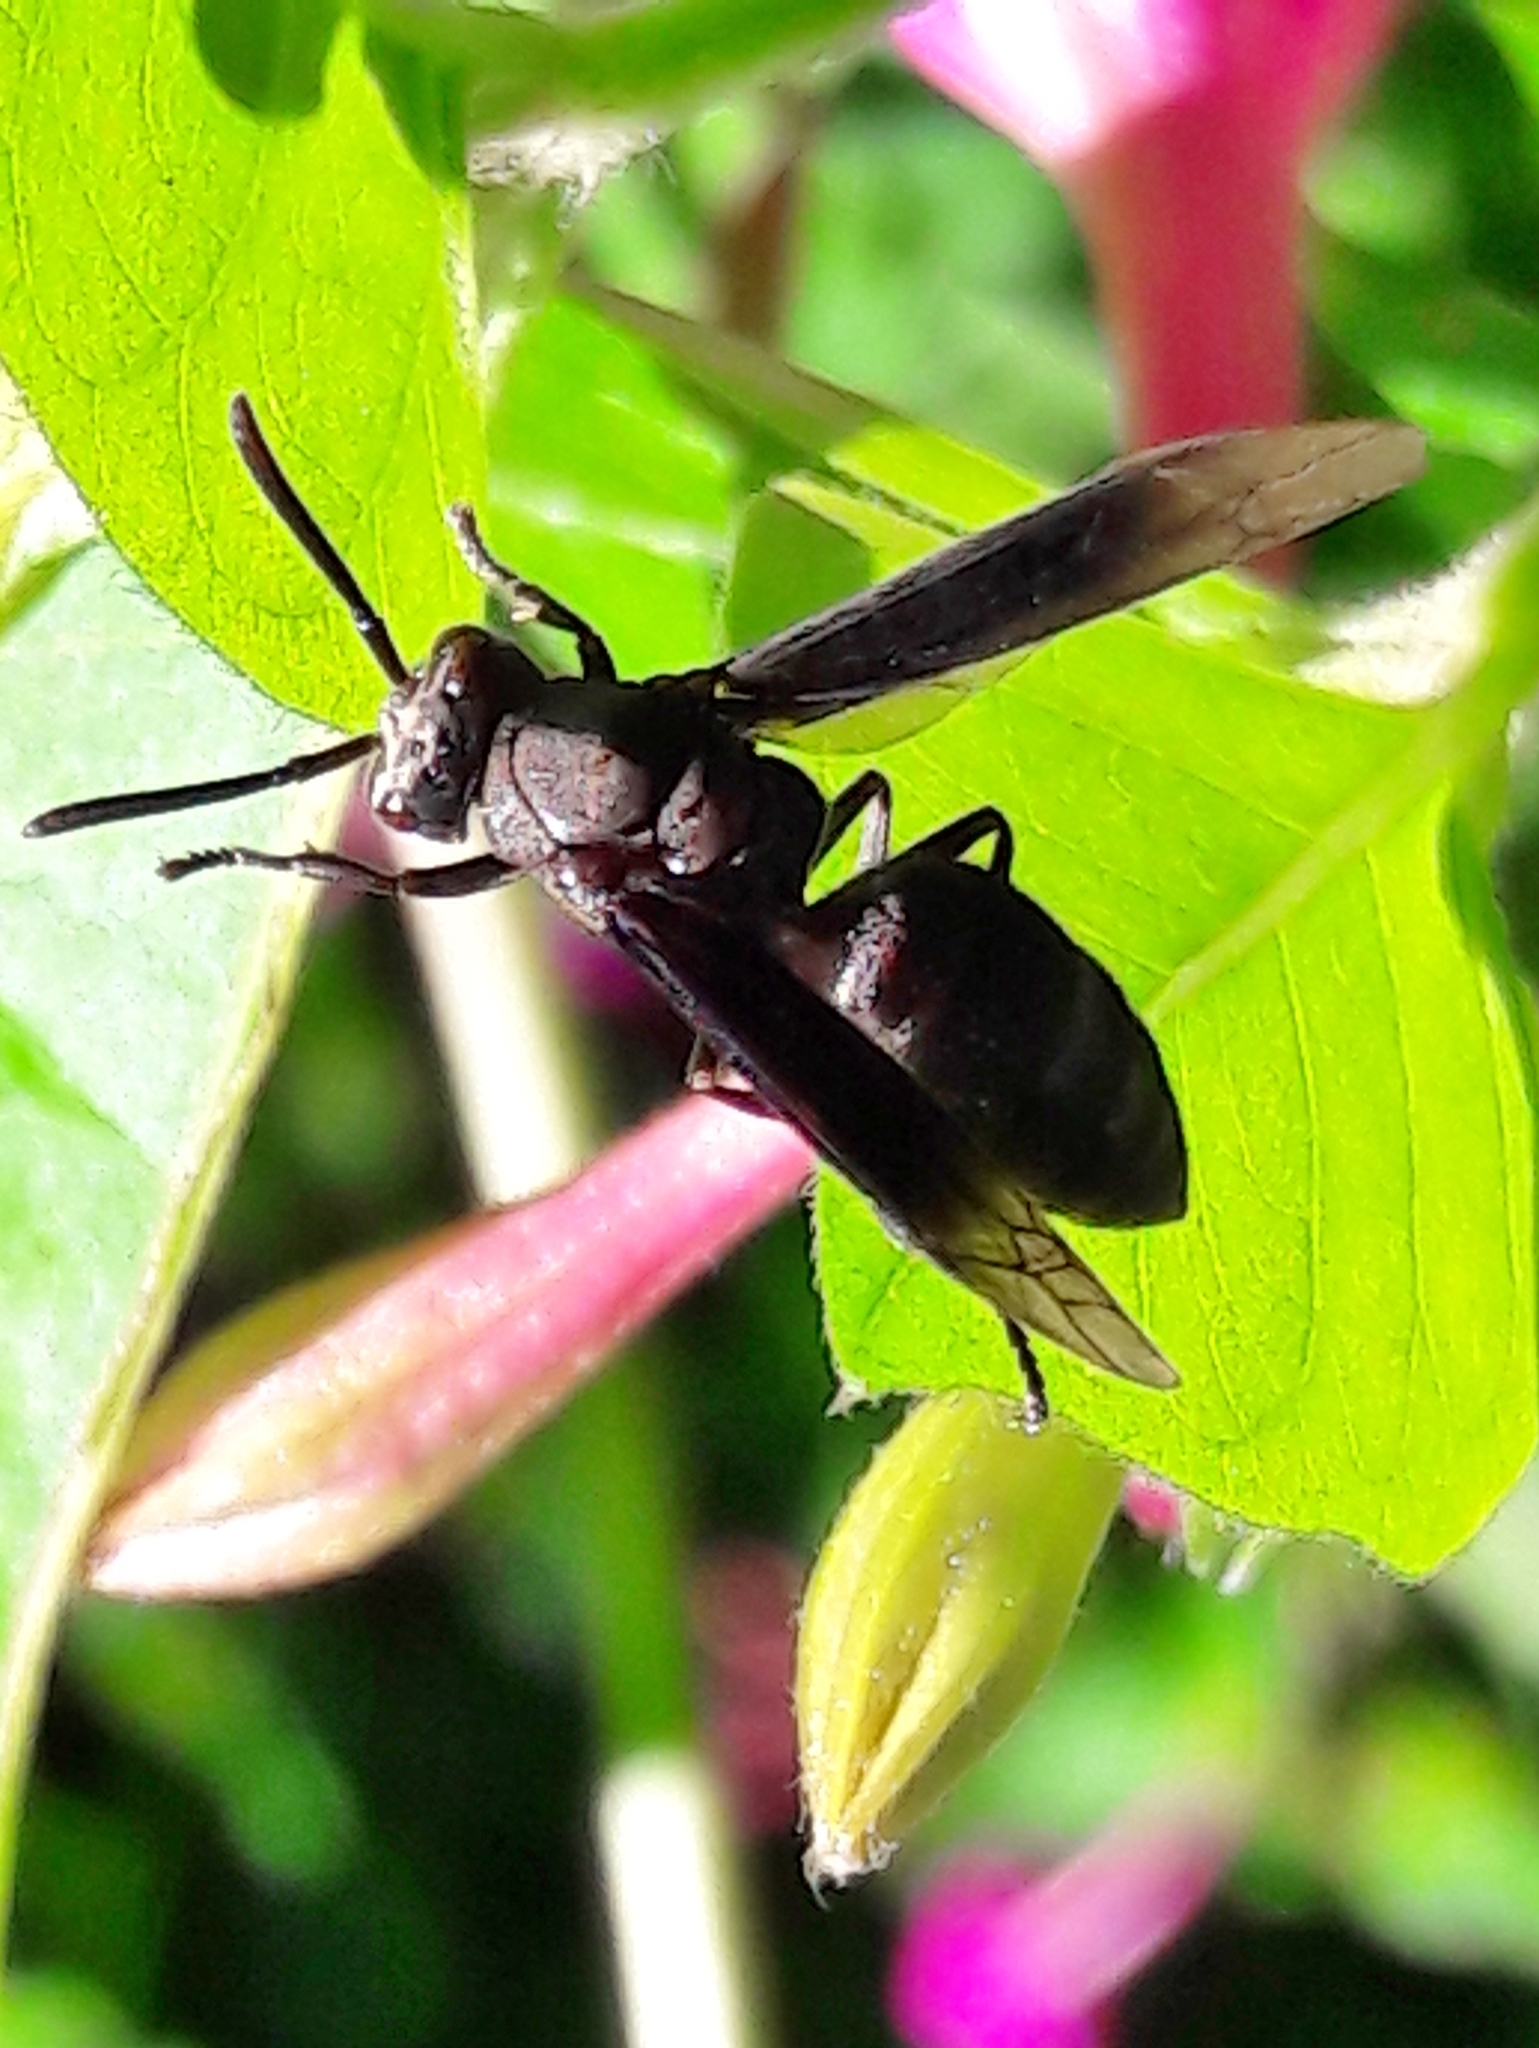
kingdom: Animalia
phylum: Arthropoda
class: Insecta
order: Hymenoptera
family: Vespidae
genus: Parachartergus
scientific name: Parachartergus fraternus
